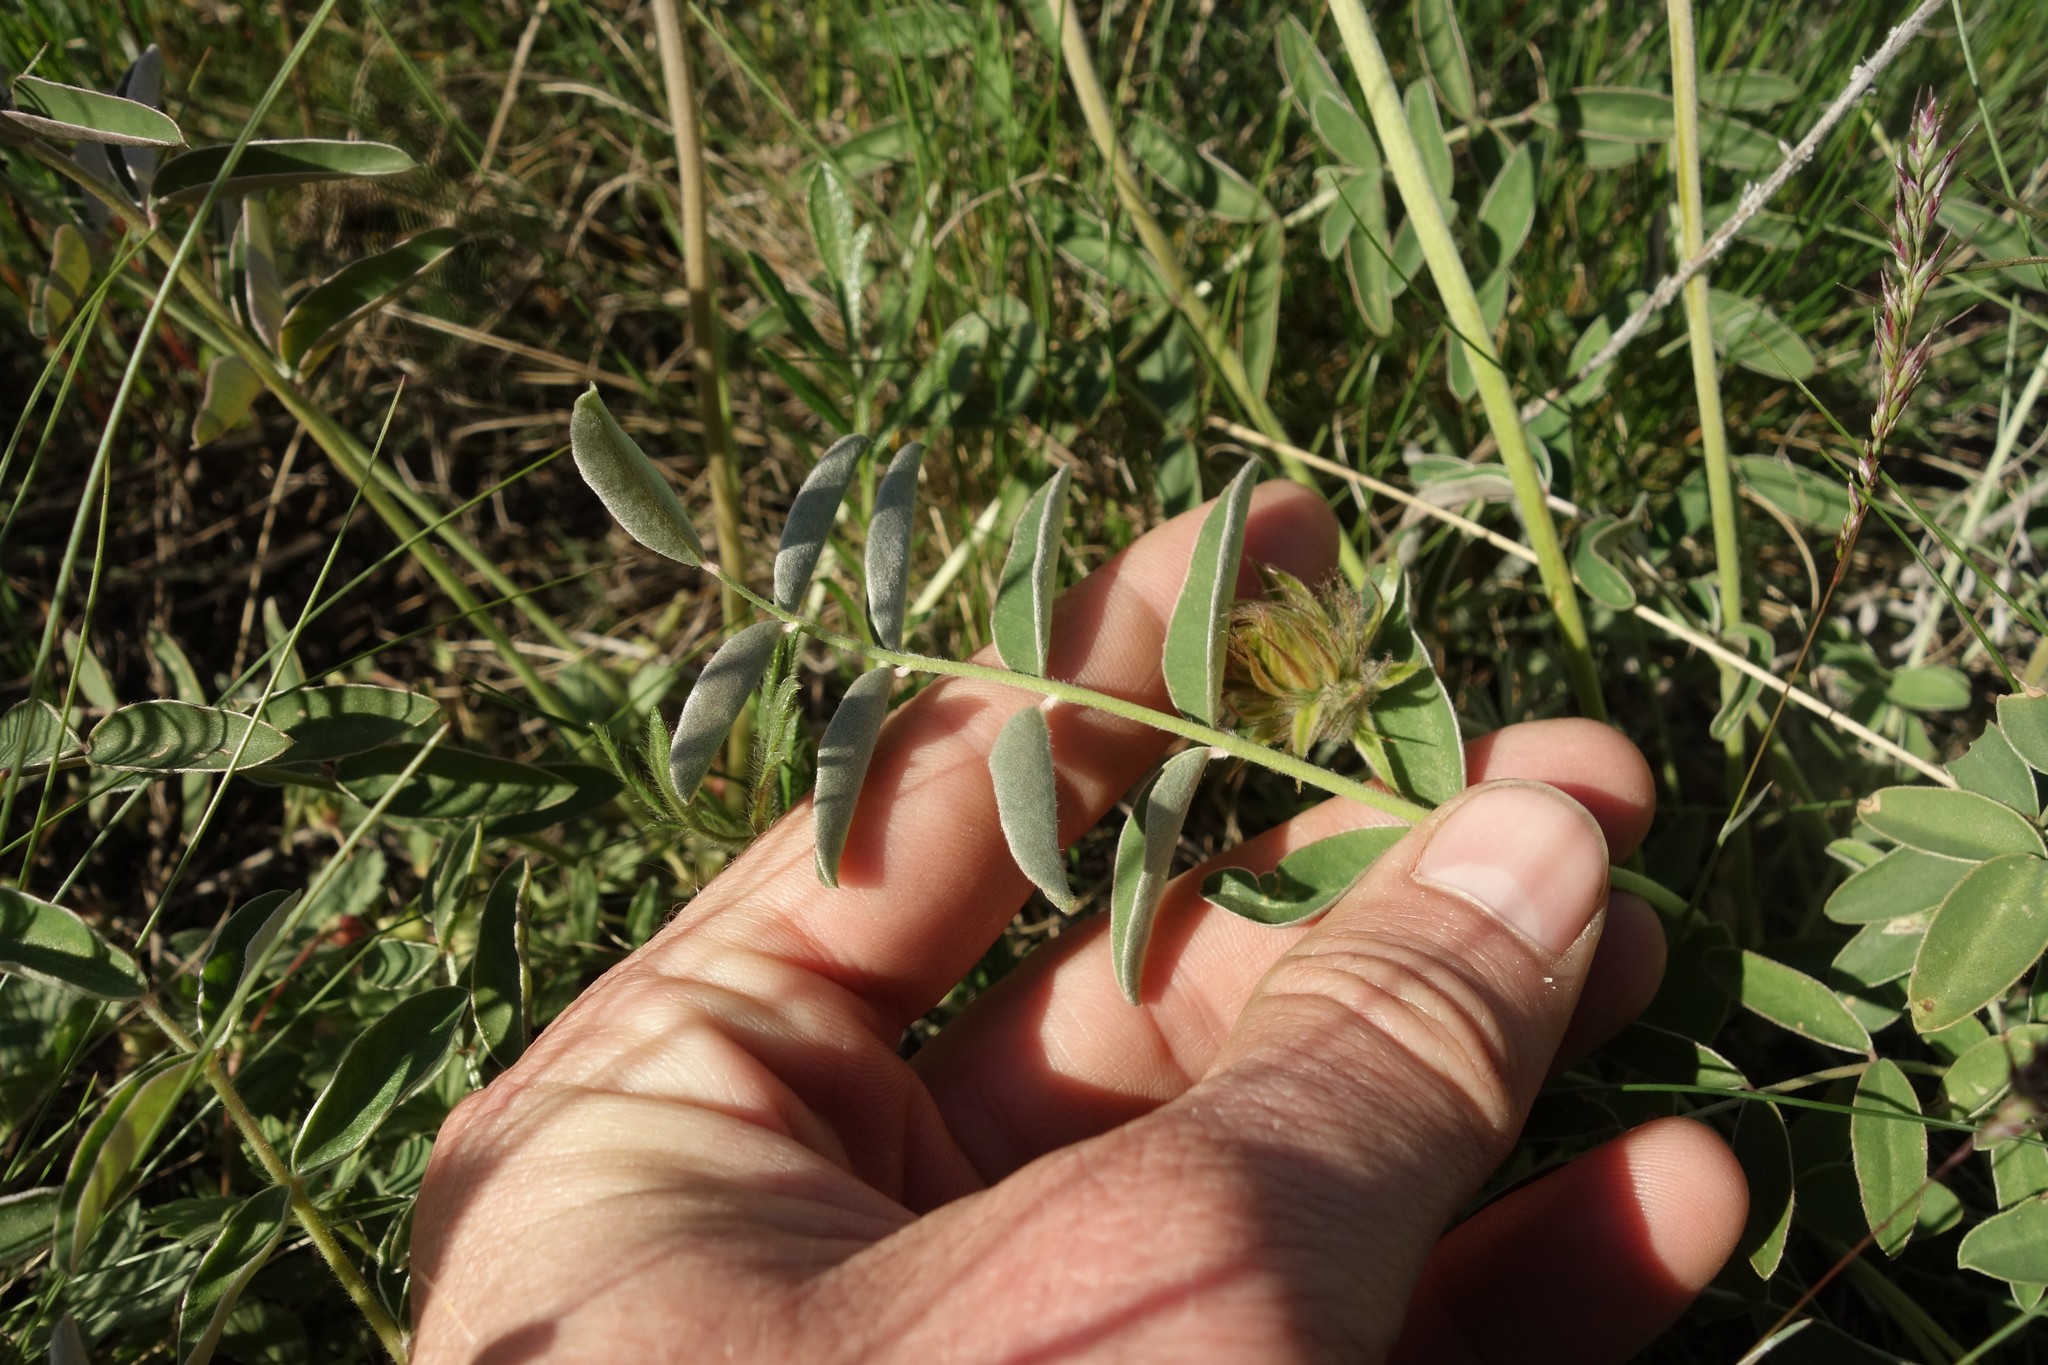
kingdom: Plantae
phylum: Tracheophyta
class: Magnoliopsida
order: Fabales
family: Fabaceae
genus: Hedysarum
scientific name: Hedysarum grandiflorum
